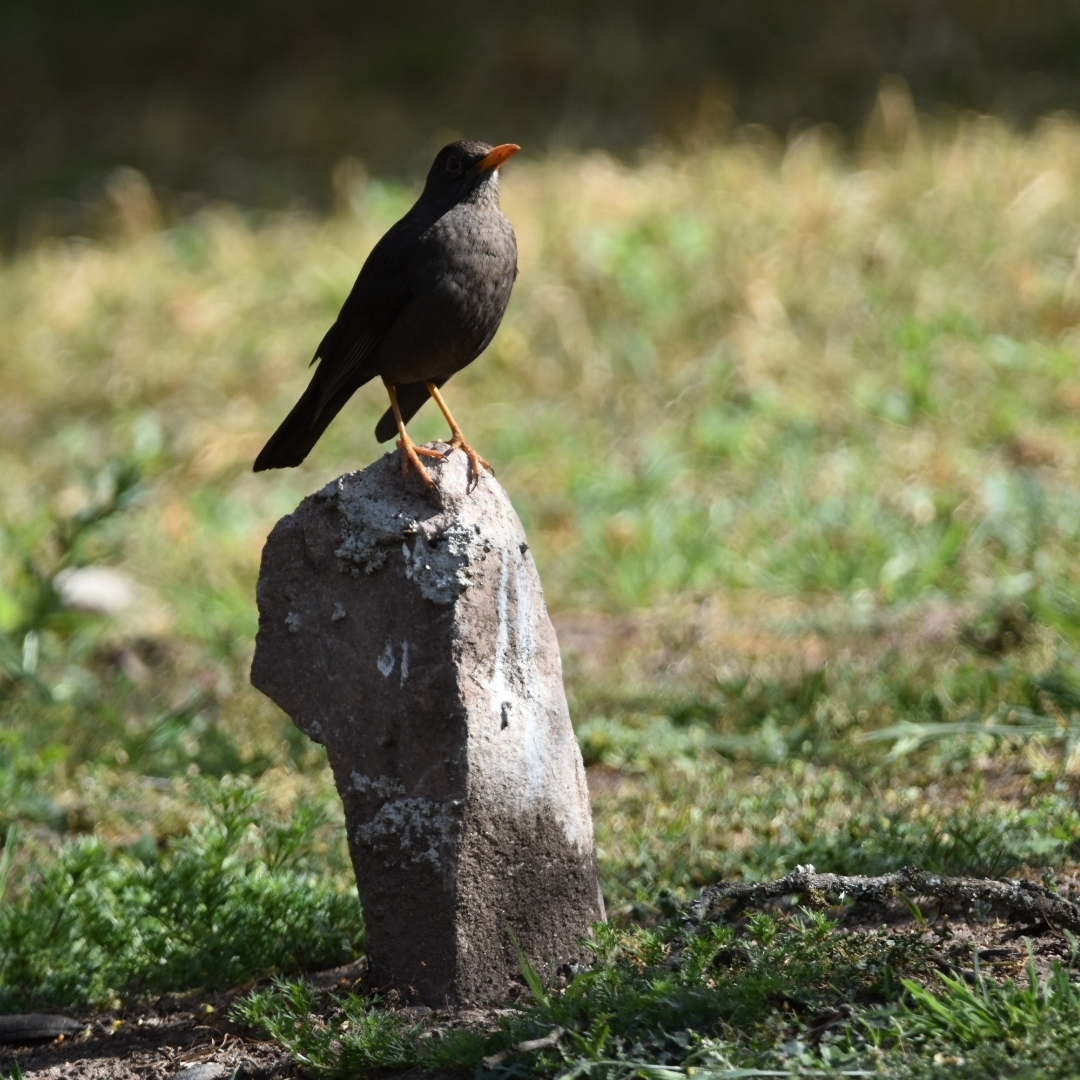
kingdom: Animalia
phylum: Chordata
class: Aves
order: Passeriformes
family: Turdidae
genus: Turdus
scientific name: Turdus chiguanco
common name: Chiguanco thrush
